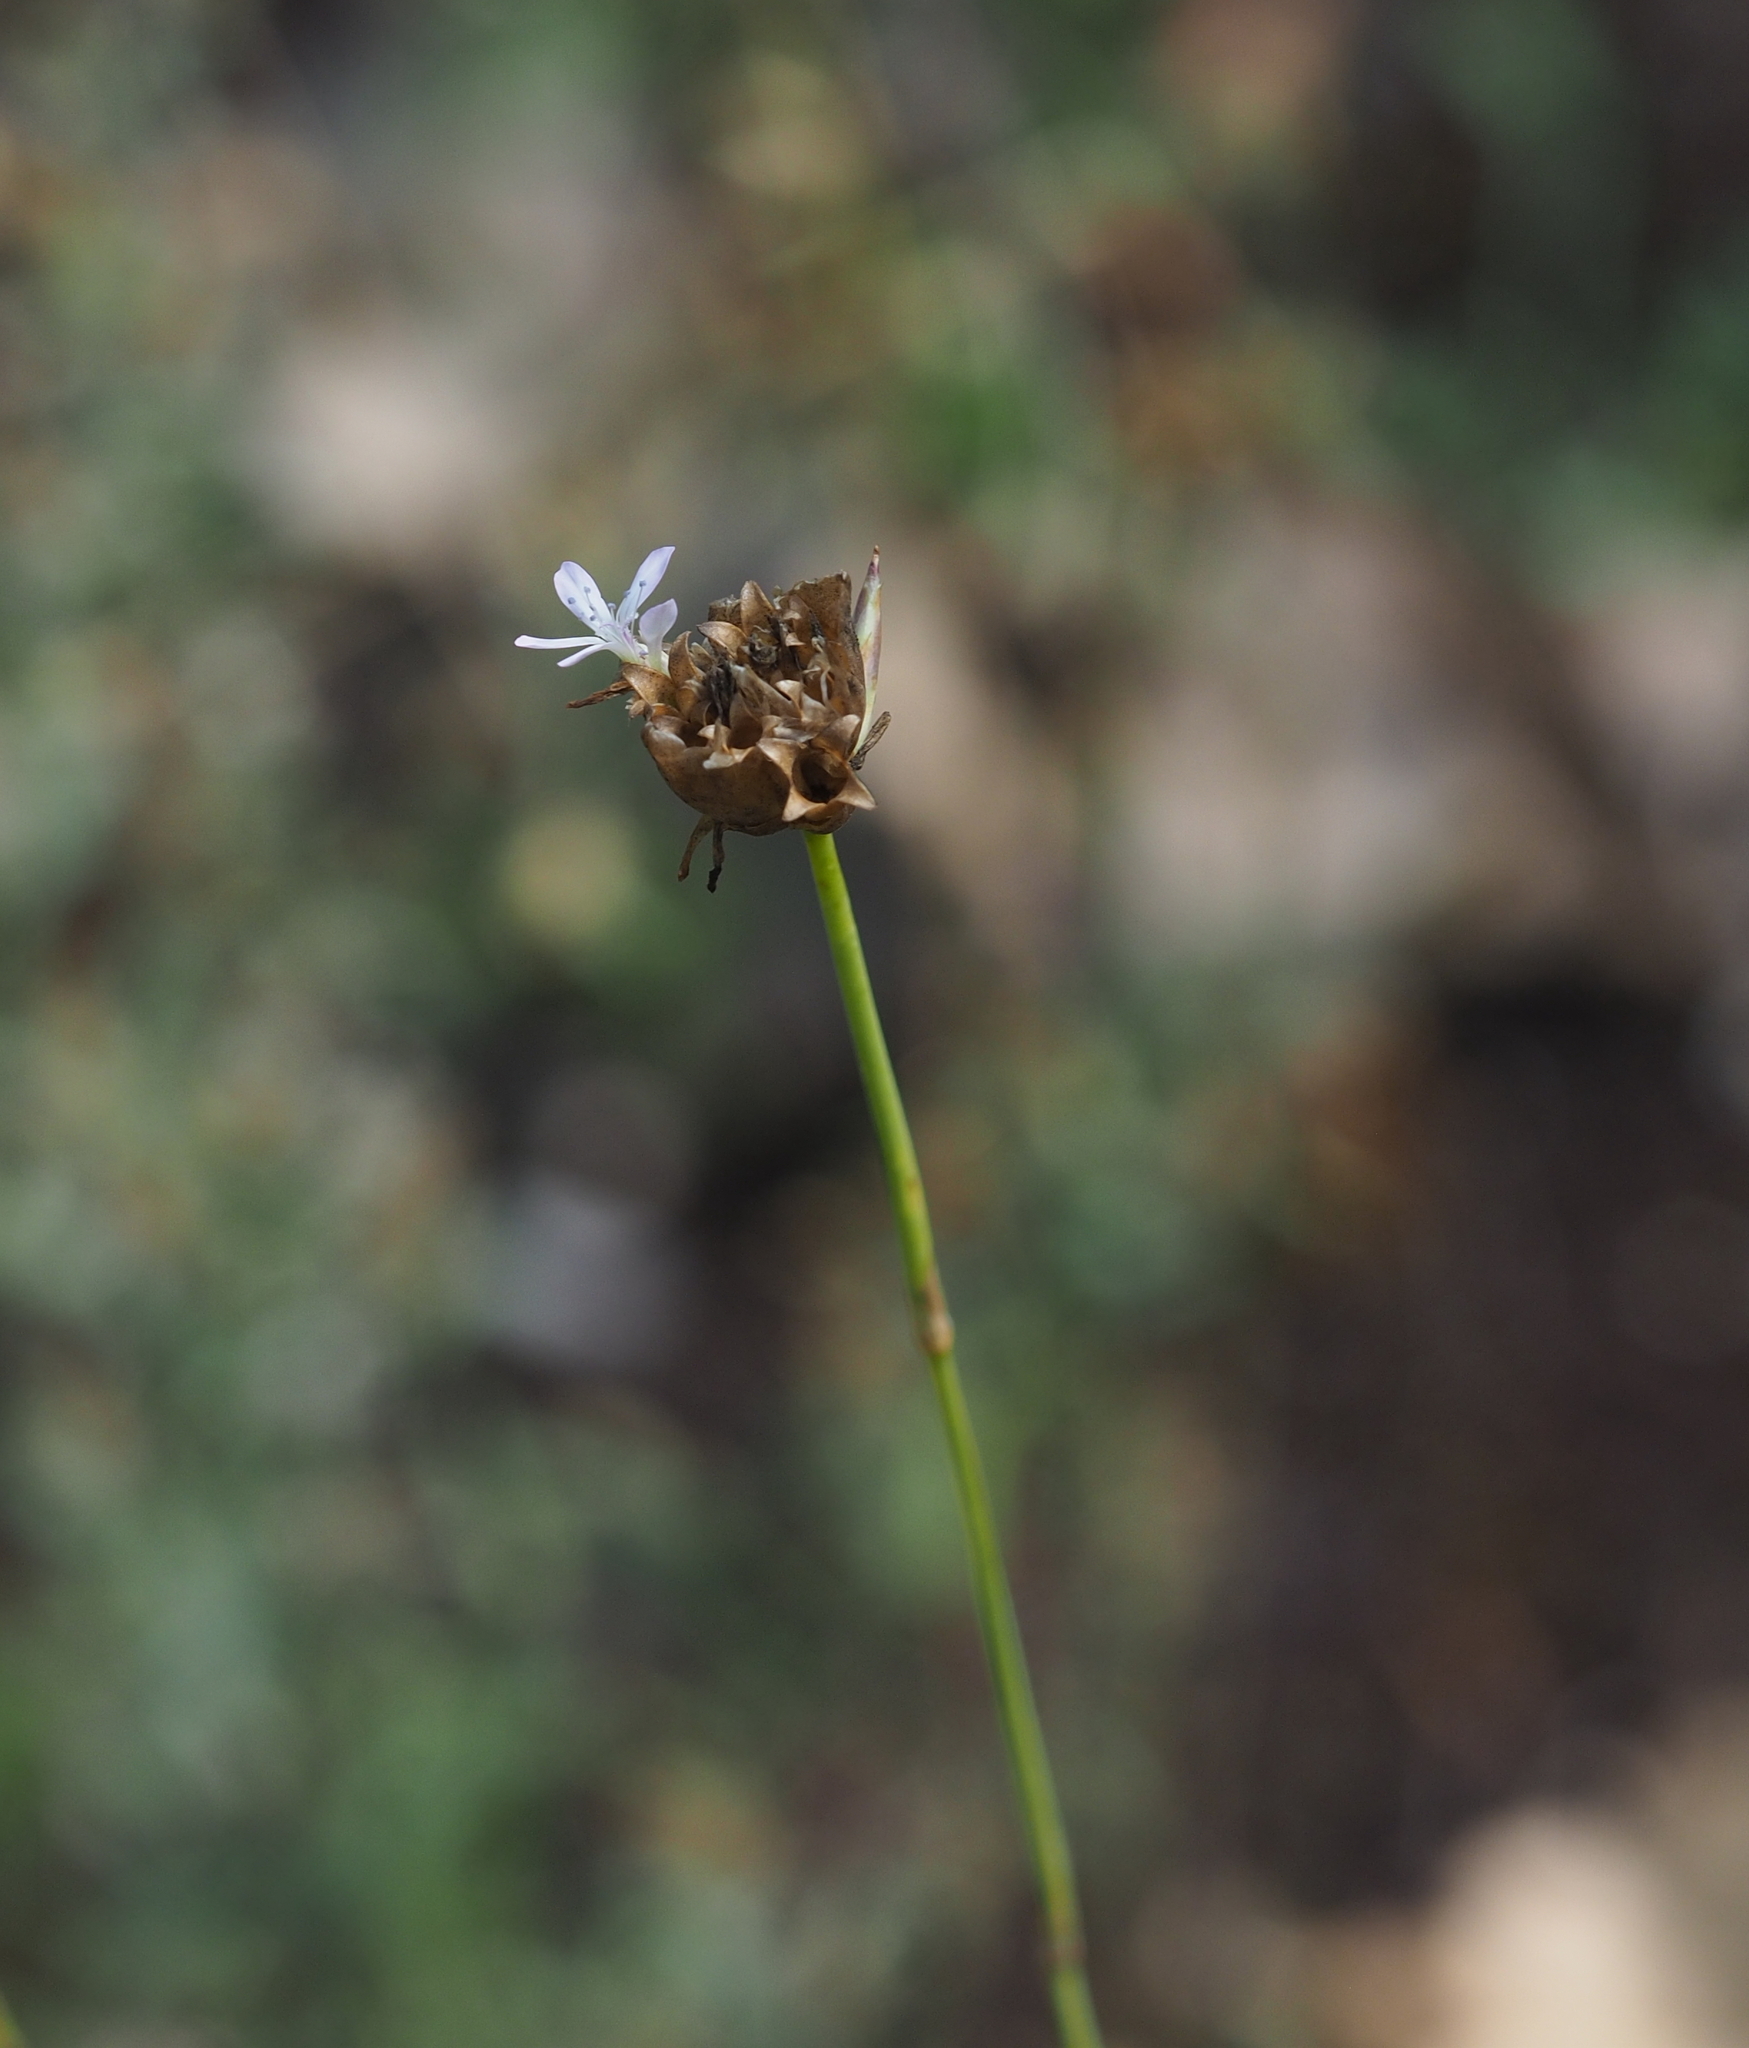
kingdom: Plantae
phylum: Tracheophyta
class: Magnoliopsida
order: Caryophyllales
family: Caryophyllaceae
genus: Petrorhagia
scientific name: Petrorhagia prolifera
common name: Proliferous pink
